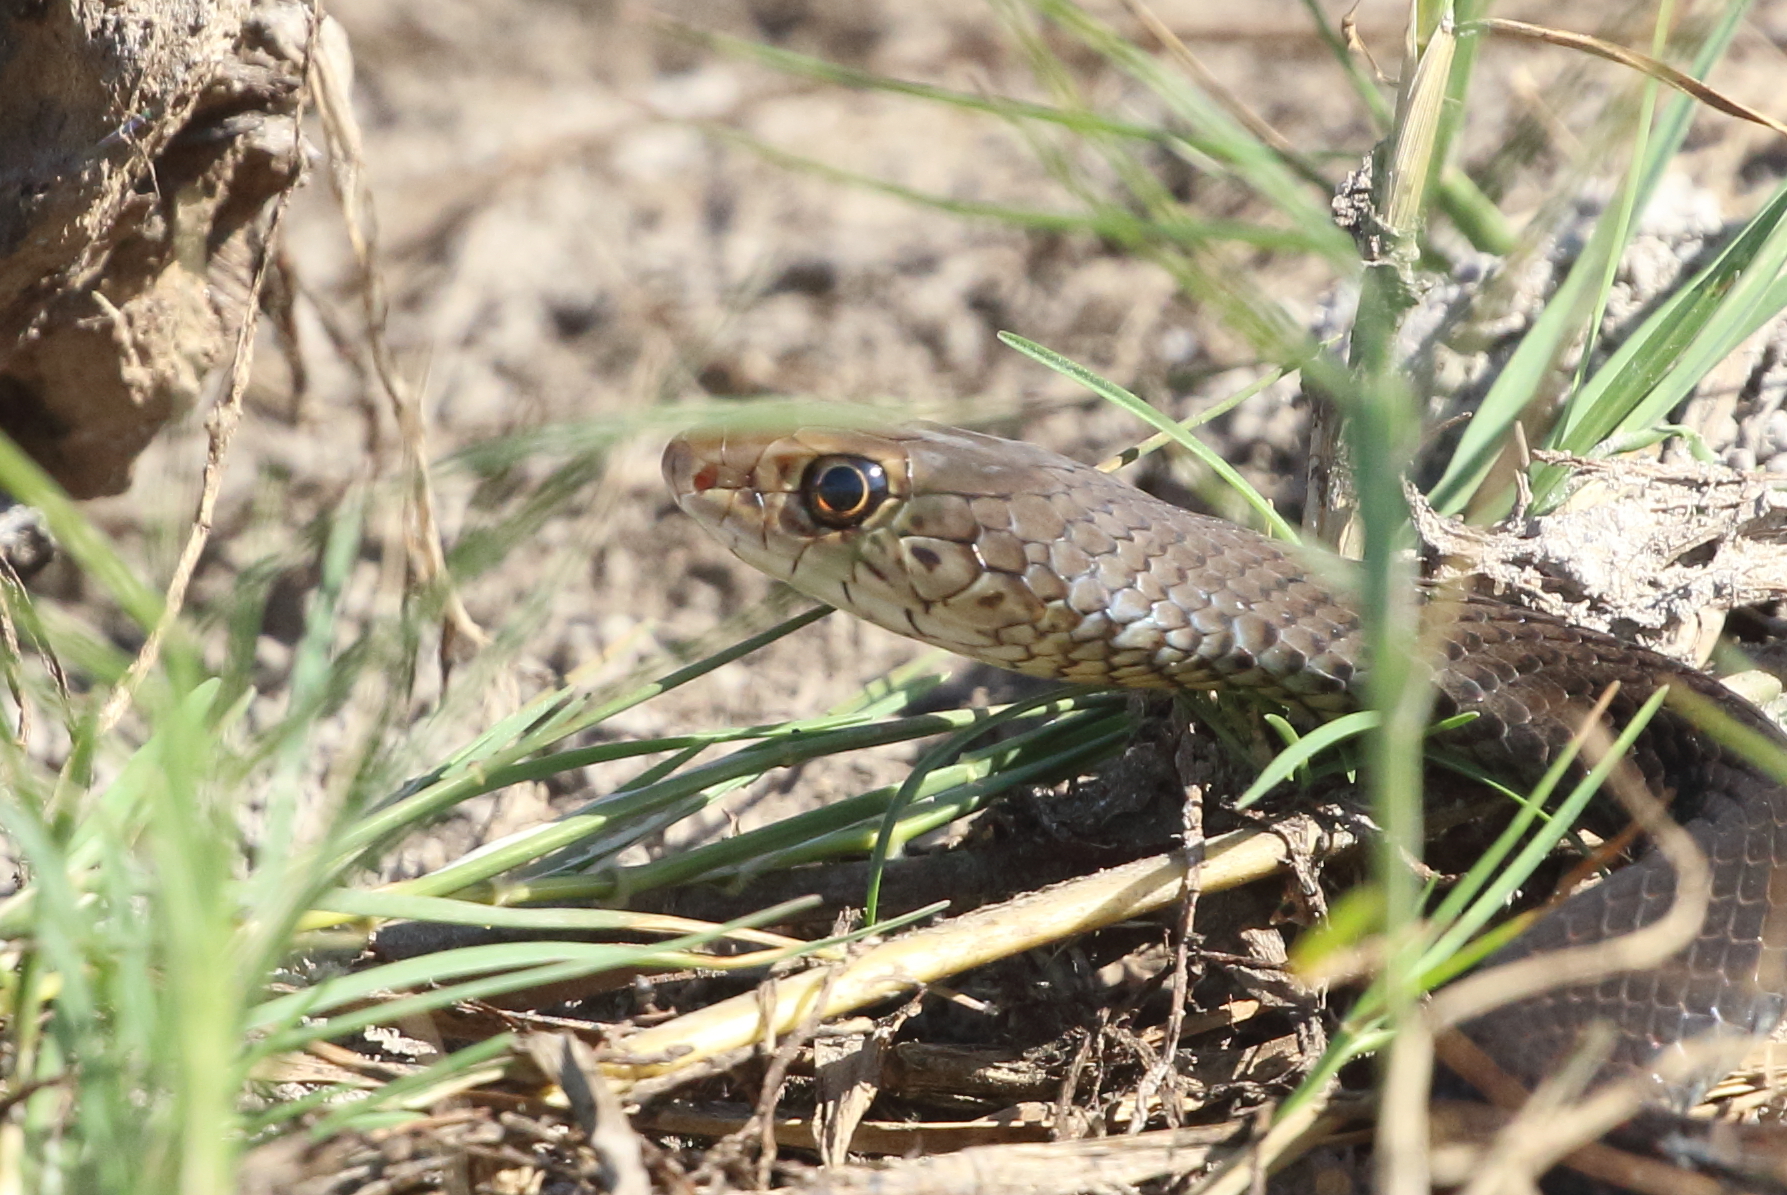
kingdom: Animalia
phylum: Chordata
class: Squamata
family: Elapidae
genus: Demansia
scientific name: Demansia vestigiata
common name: Black whip snake
